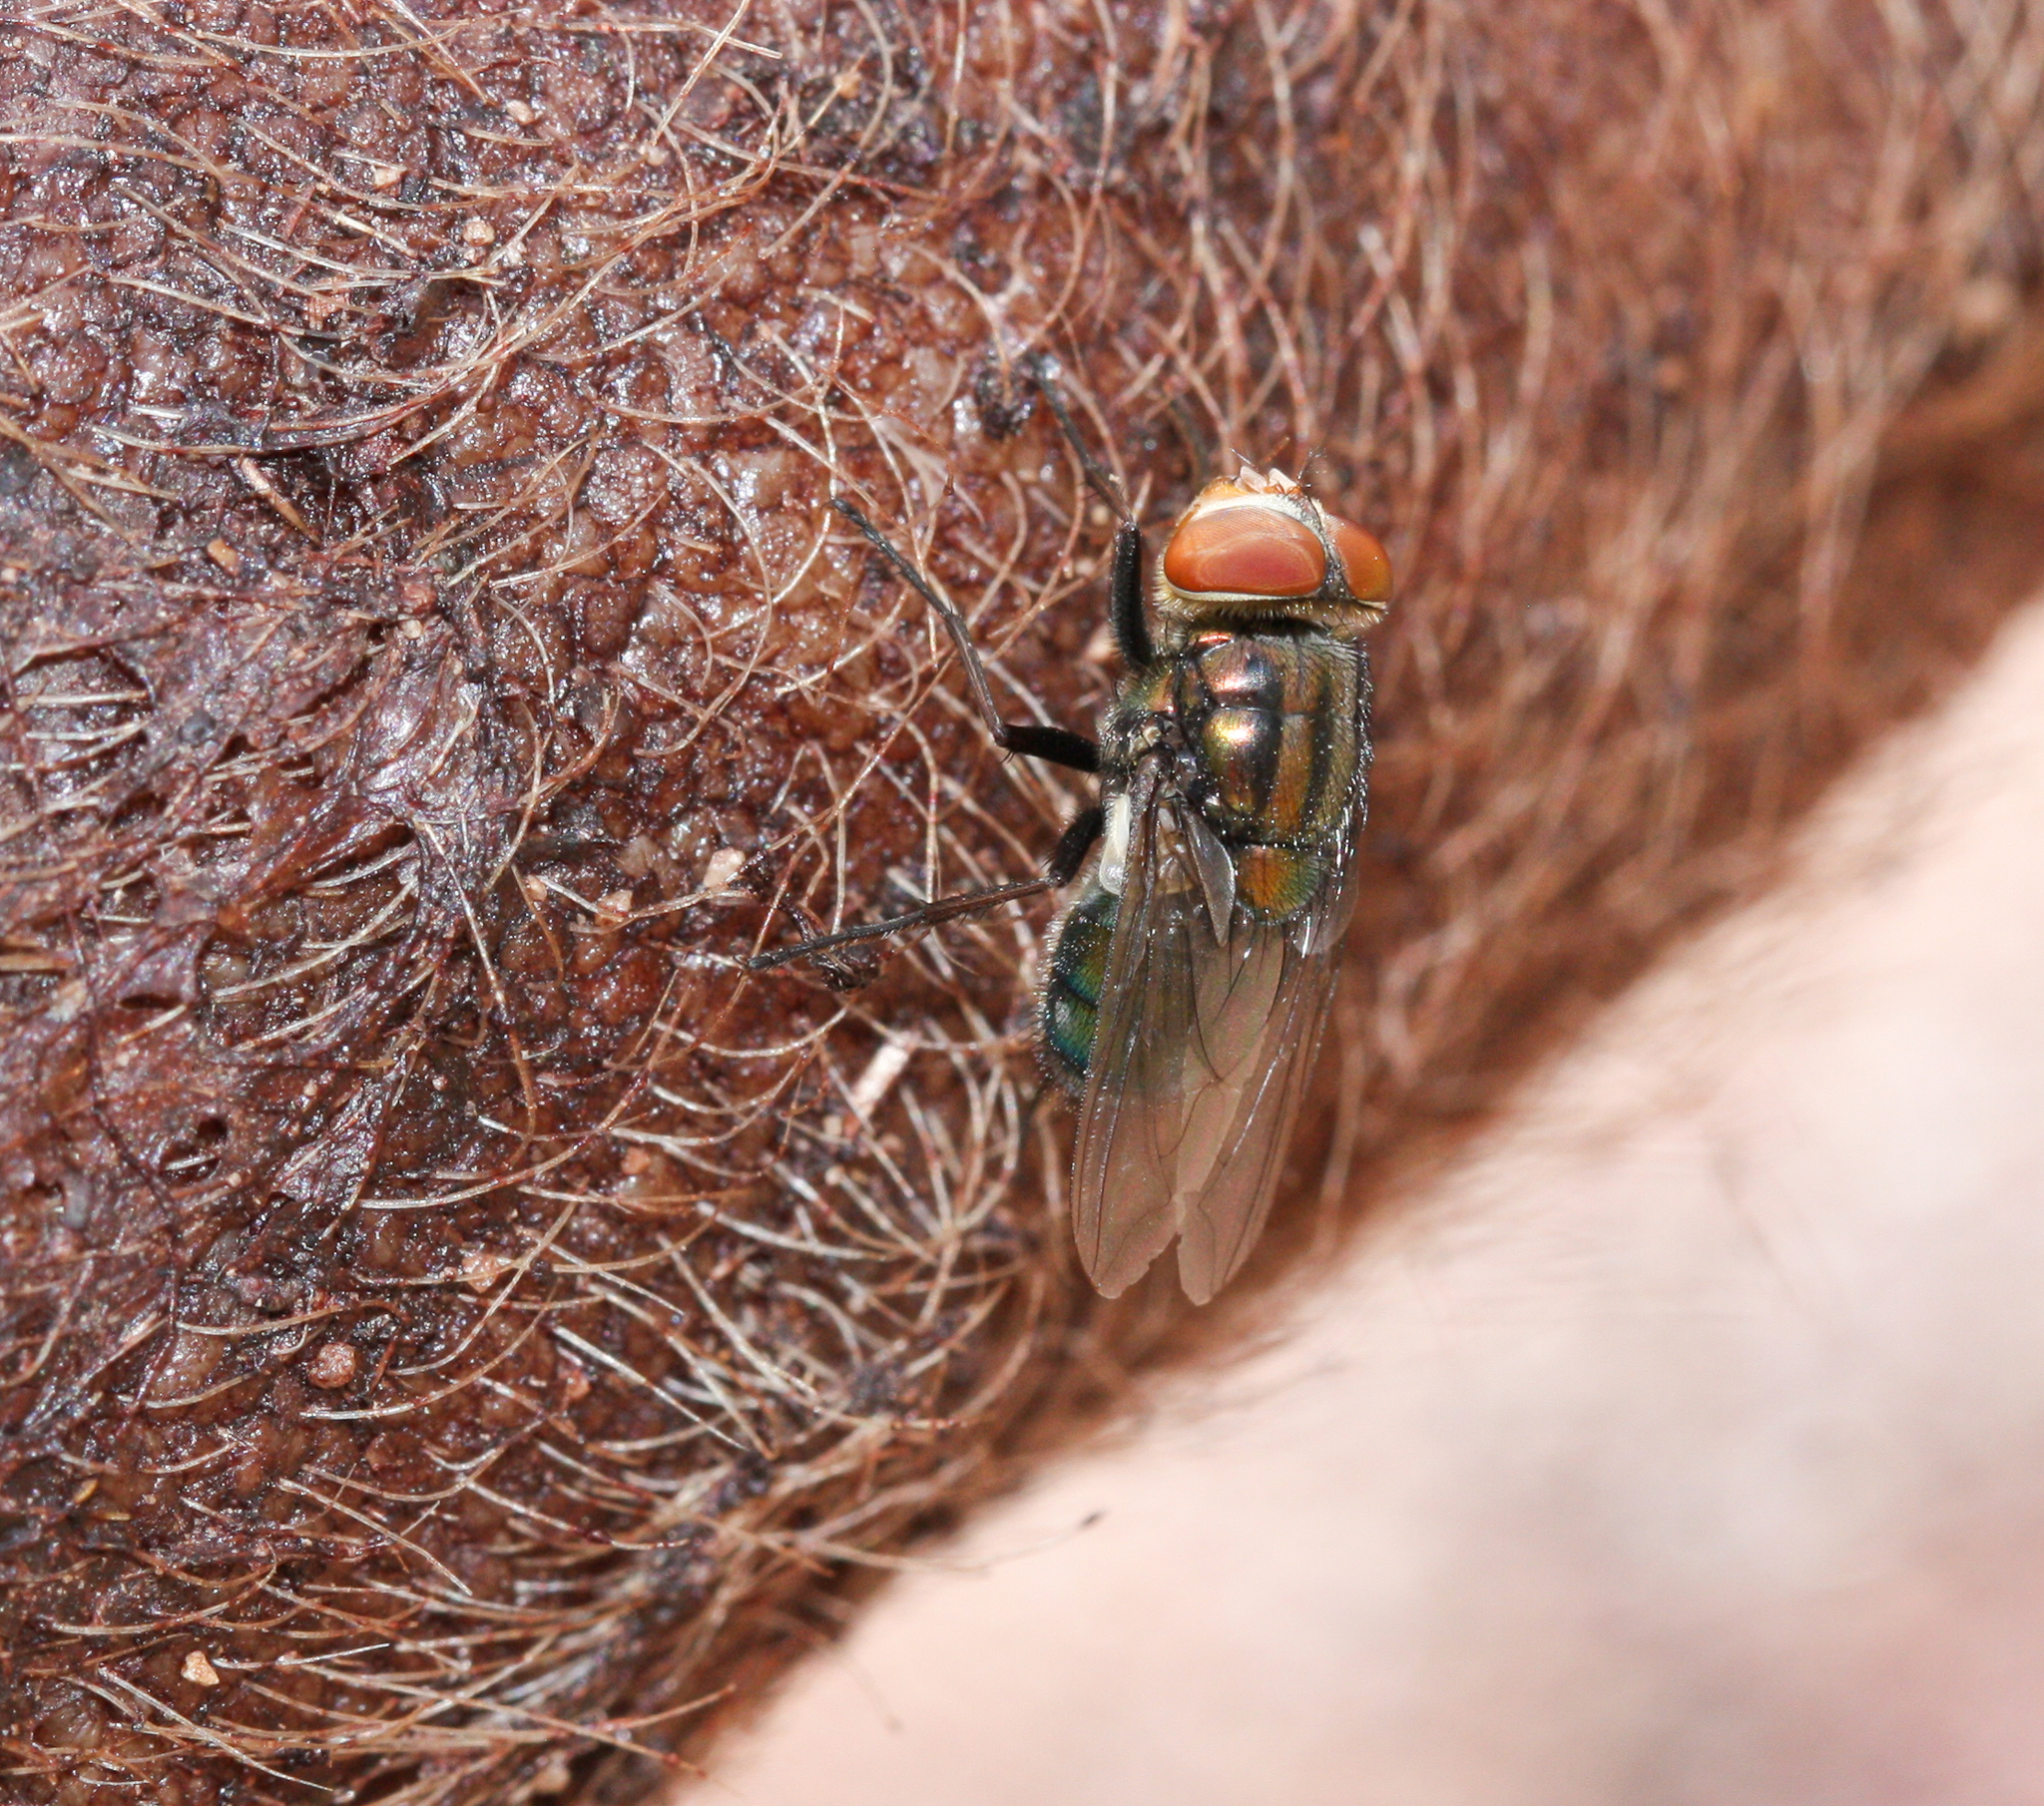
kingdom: Animalia
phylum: Arthropoda
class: Insecta
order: Diptera
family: Calliphoridae
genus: Cochliomyia
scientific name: Cochliomyia macellaria
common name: Secondary screwworm
